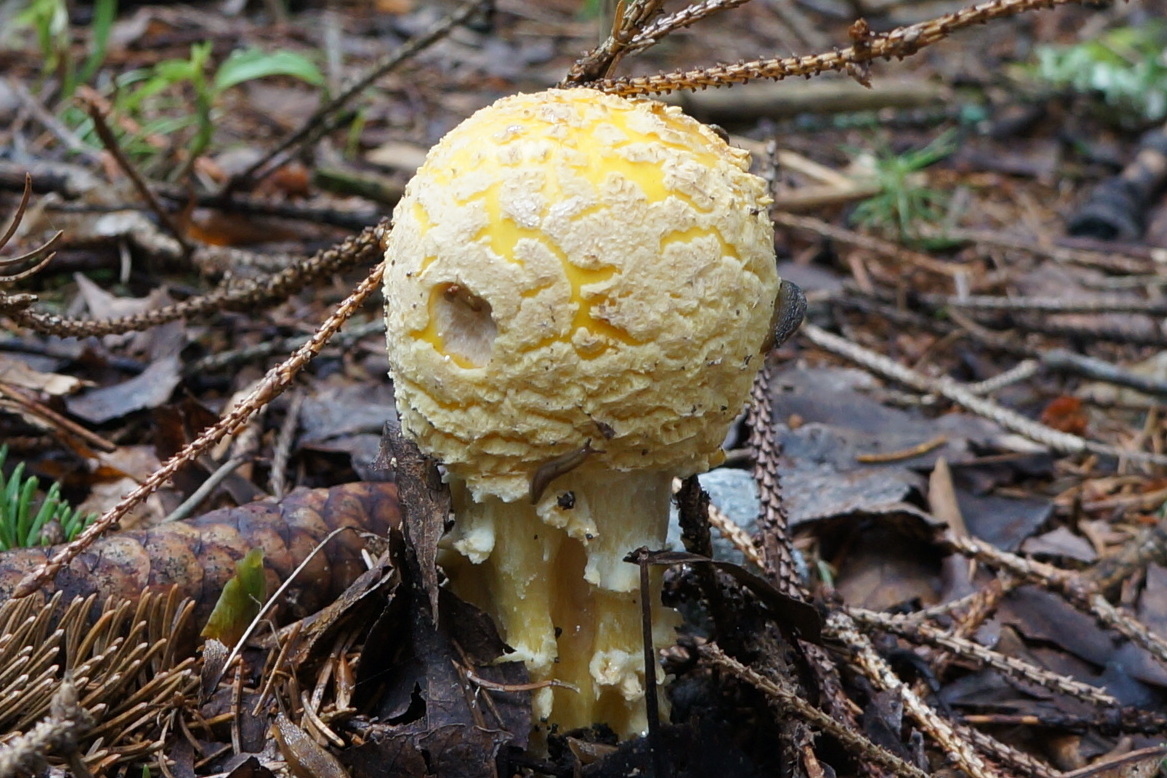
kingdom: Fungi
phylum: Basidiomycota
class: Agaricomycetes
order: Agaricales
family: Amanitaceae
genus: Amanita
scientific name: Amanita muscaria
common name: Fly agaric
